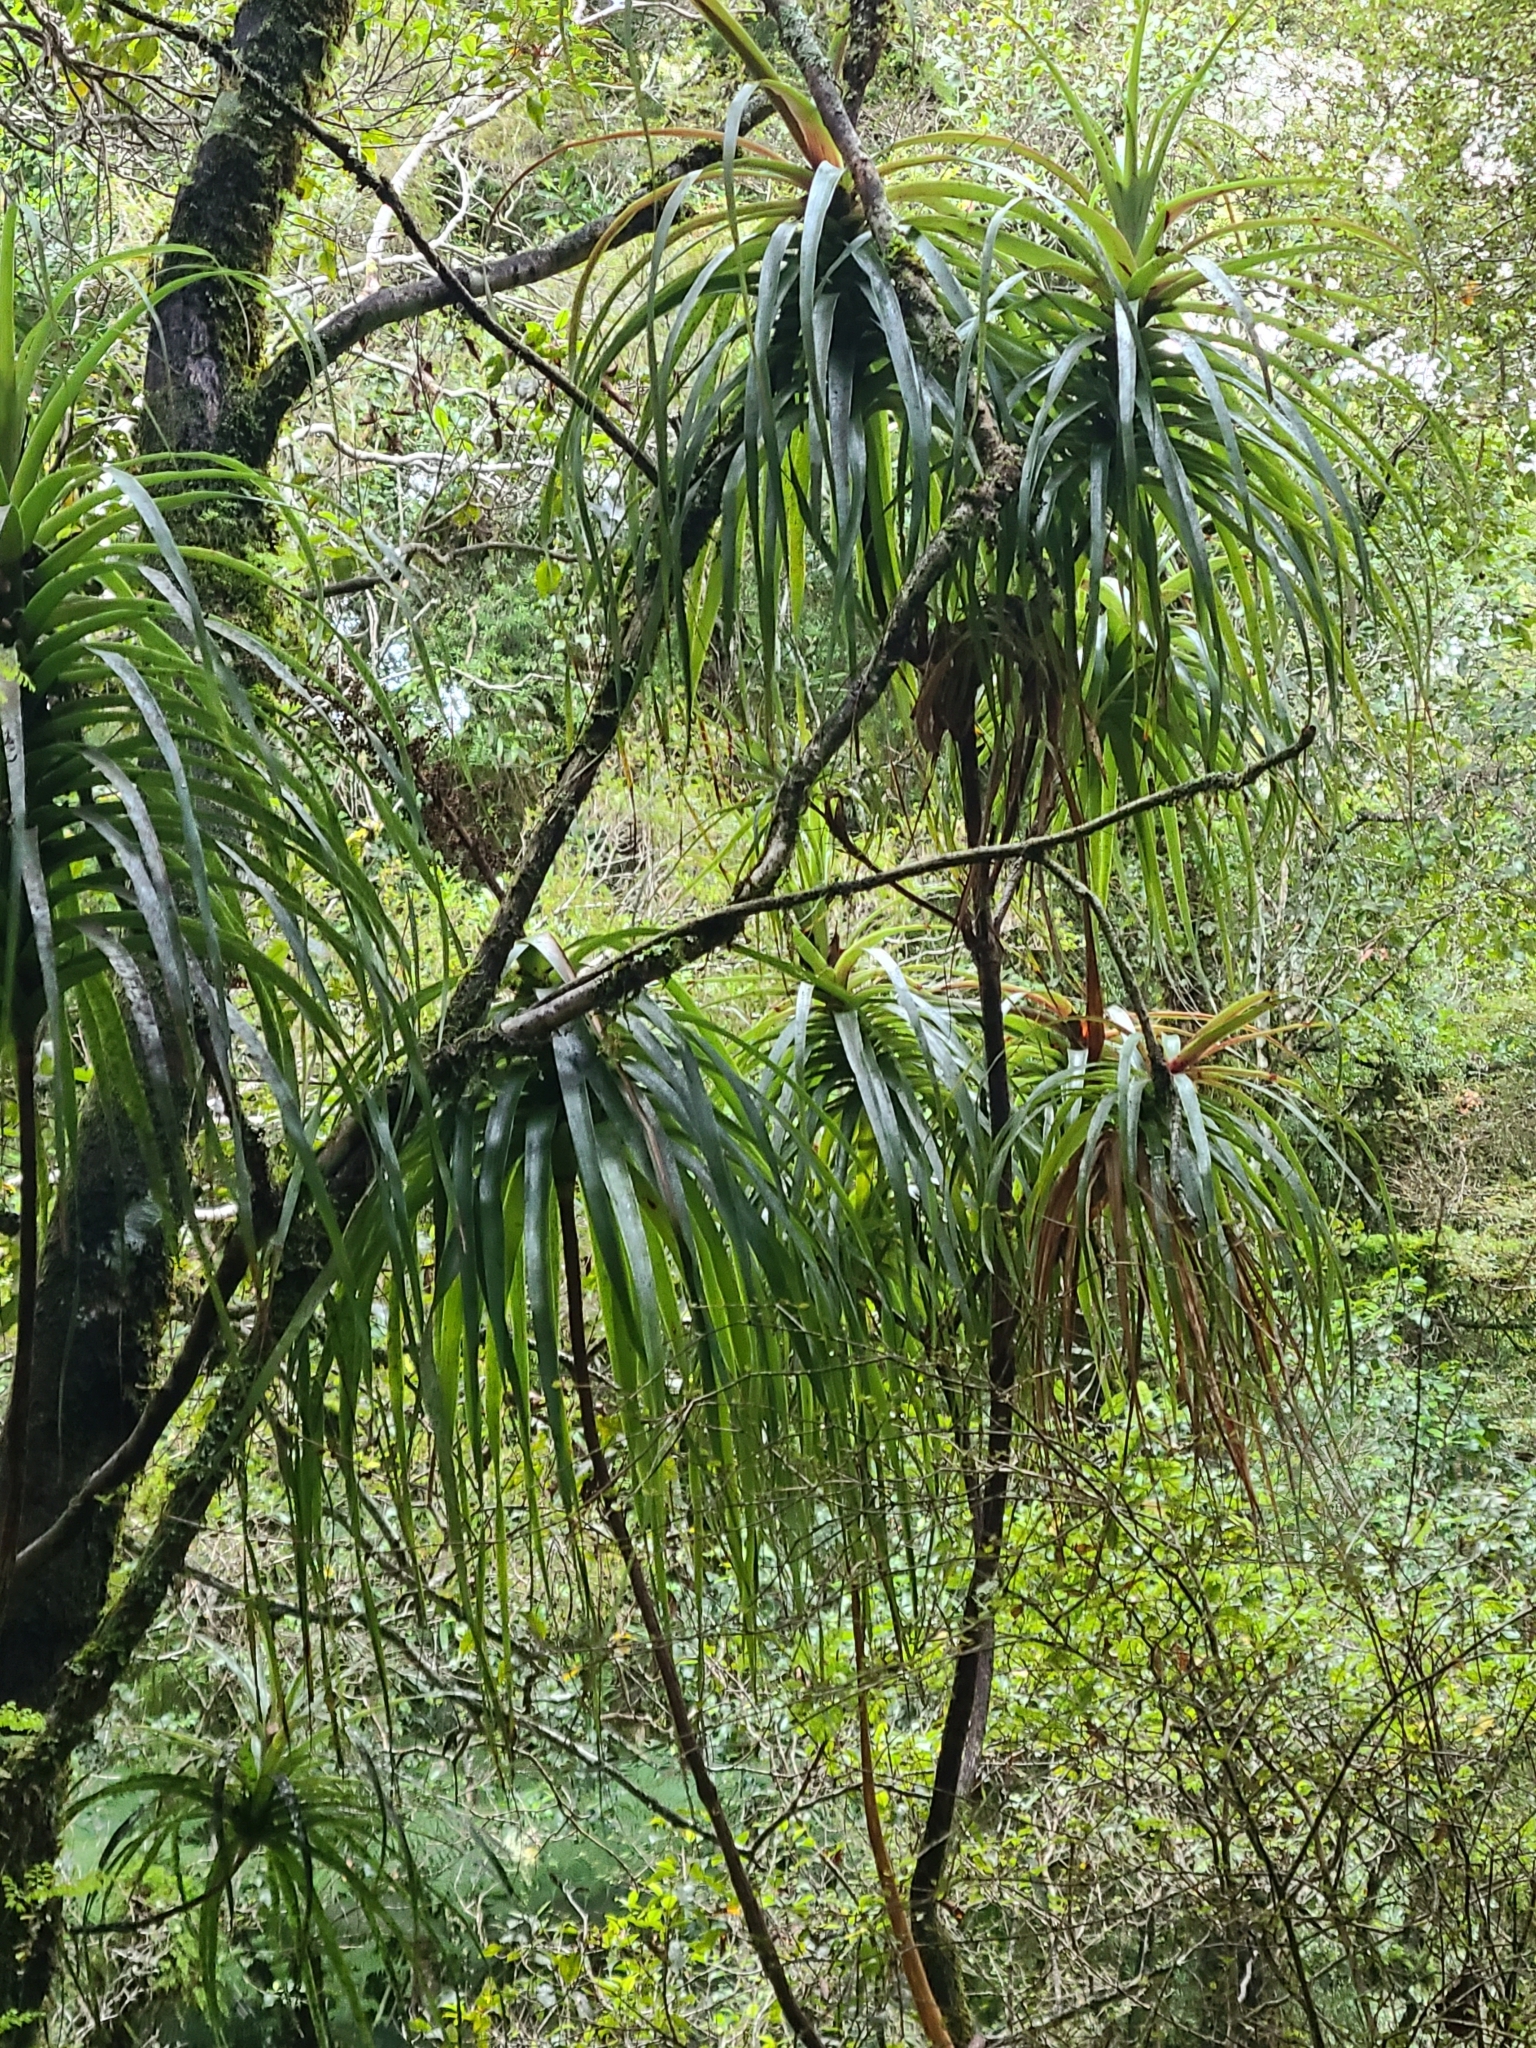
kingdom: Plantae
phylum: Tracheophyta
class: Magnoliopsida
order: Ericales
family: Ericaceae
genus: Dracophyllum
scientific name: Dracophyllum latifolium
